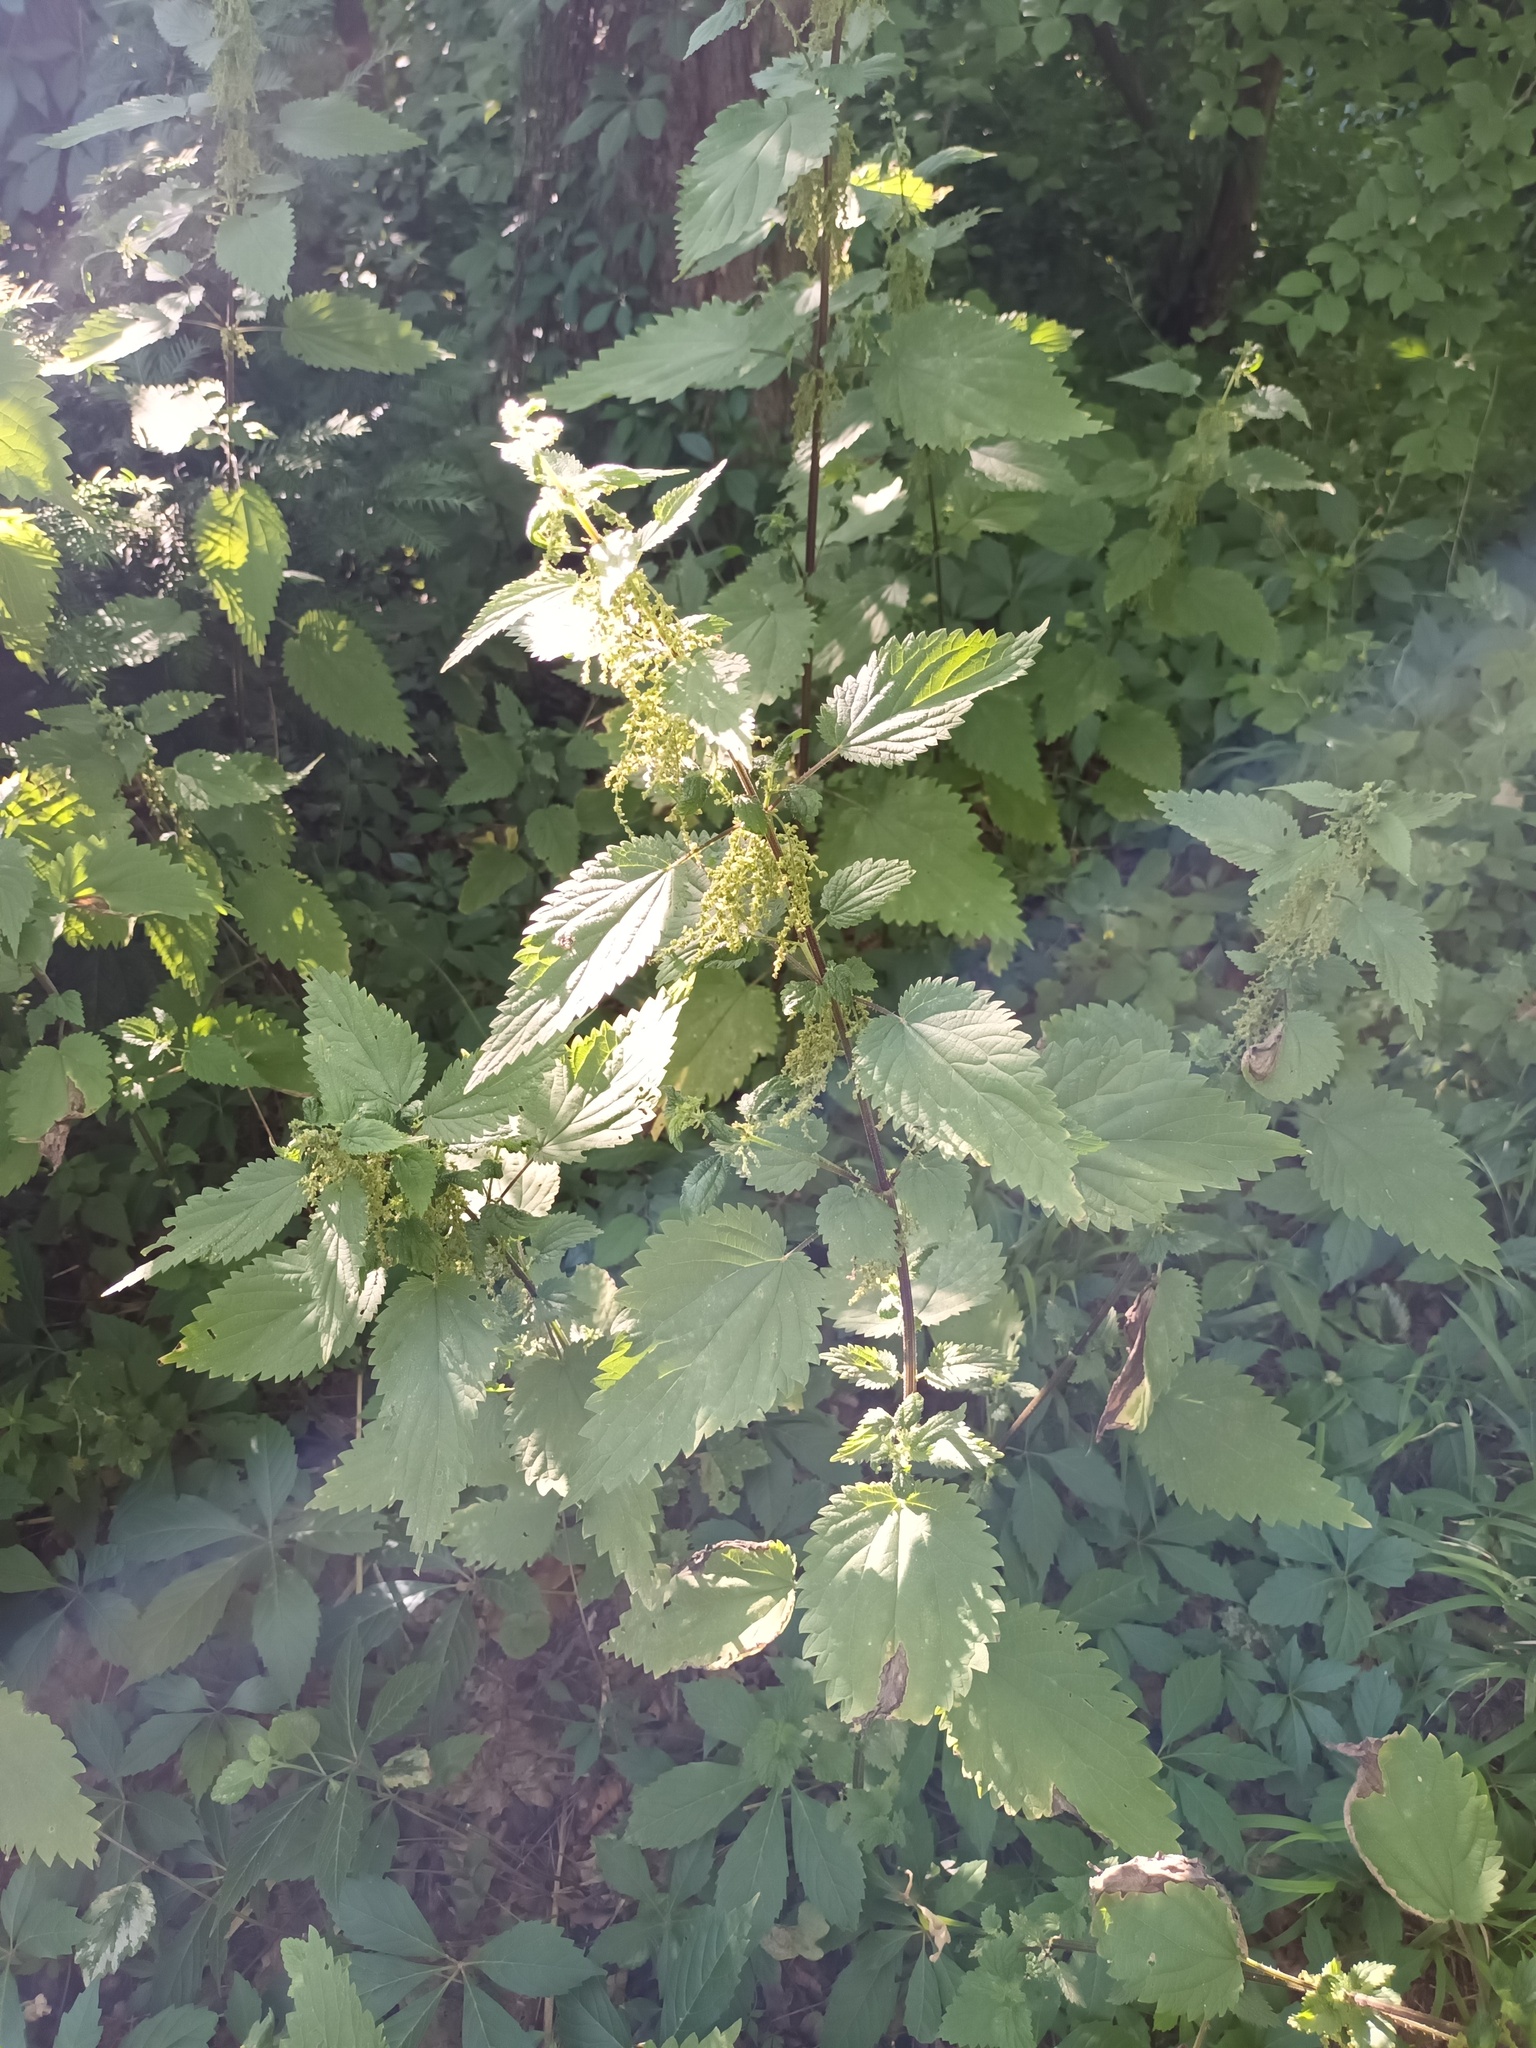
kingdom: Plantae
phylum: Tracheophyta
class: Magnoliopsida
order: Rosales
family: Urticaceae
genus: Urtica
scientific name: Urtica dioica
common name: Common nettle
